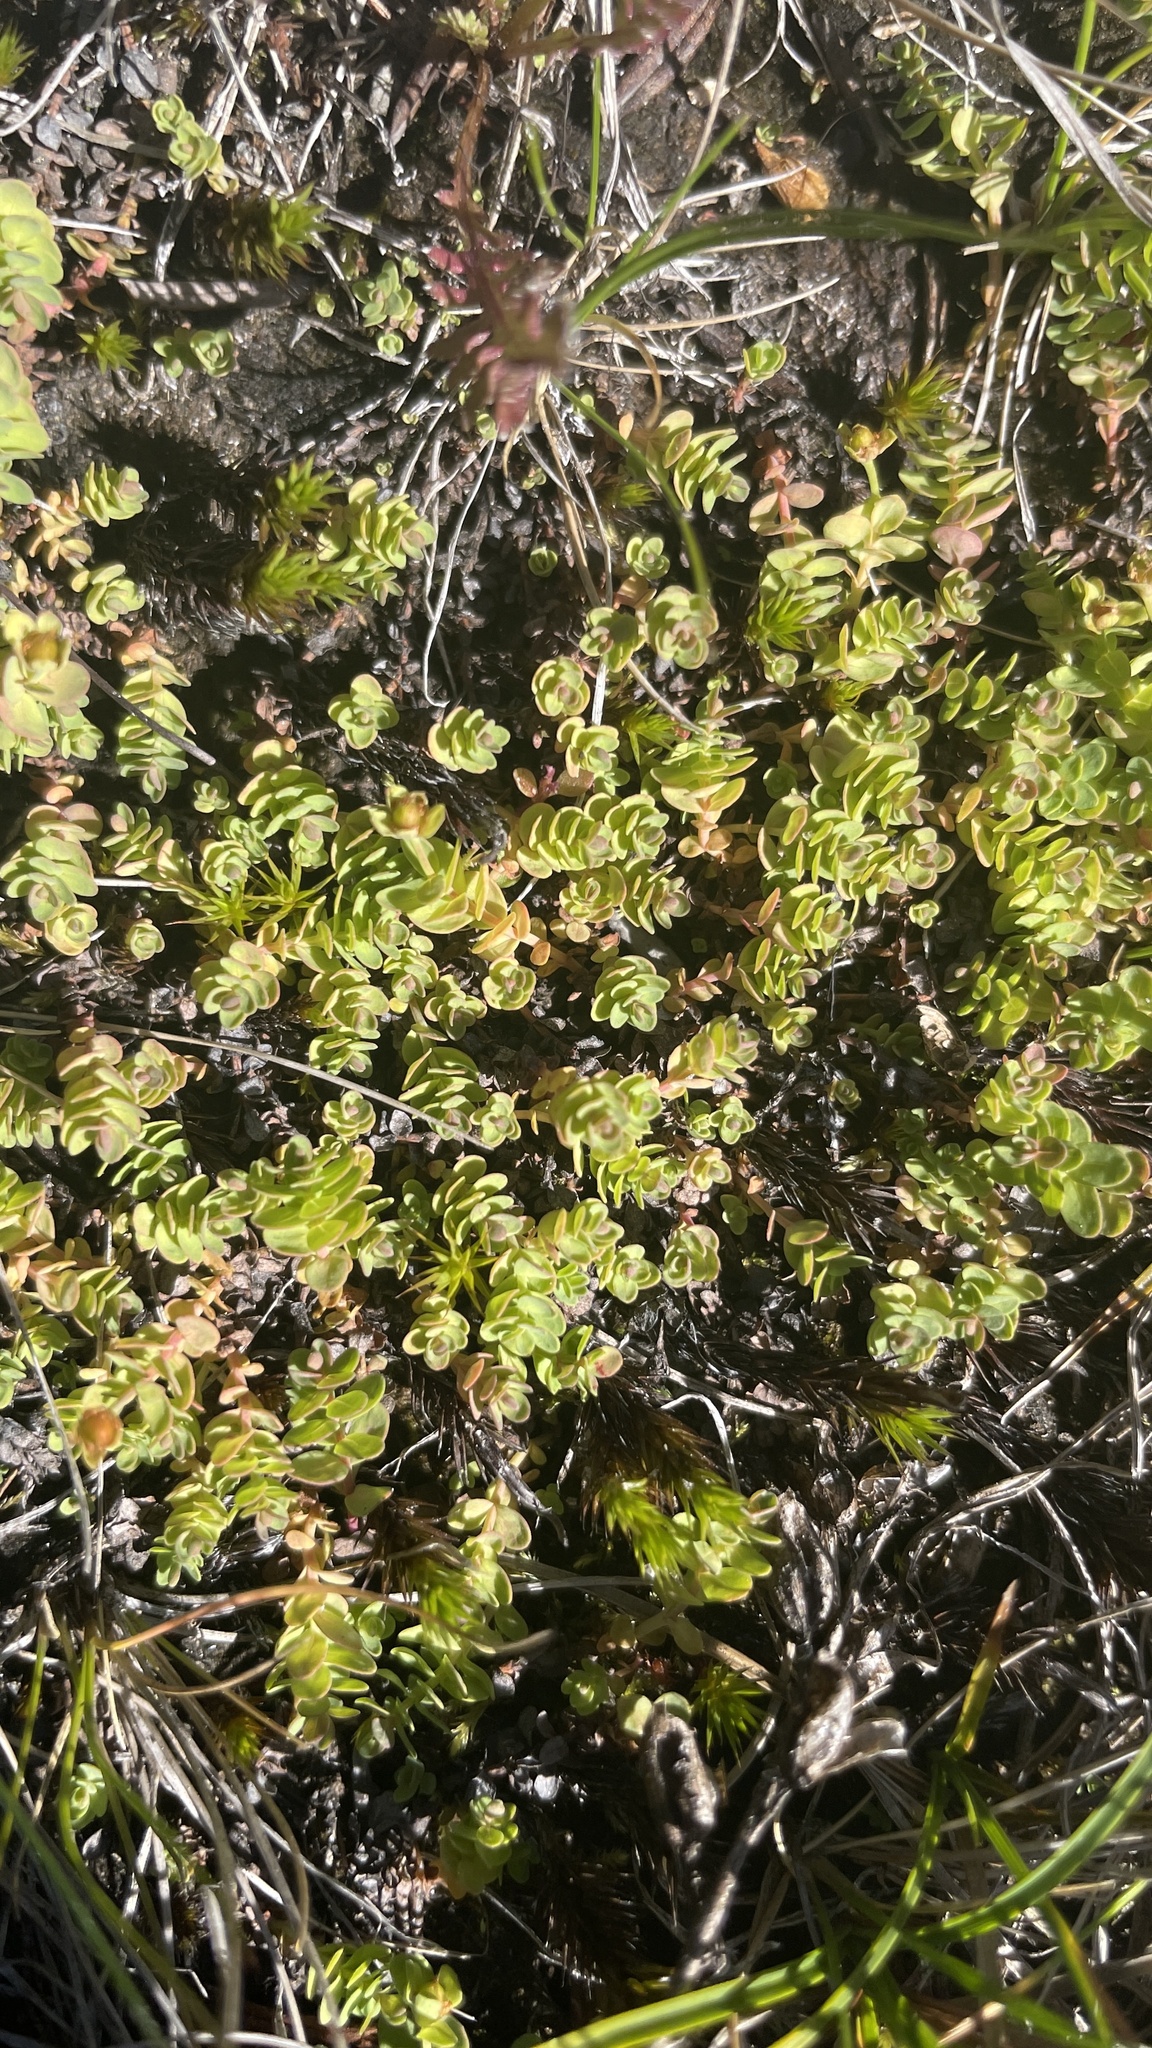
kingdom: Plantae
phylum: Tracheophyta
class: Magnoliopsida
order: Malpighiales
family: Hypericaceae
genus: Hypericum
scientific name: Hypericum anagalloides
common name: Bog st. john's-wort
